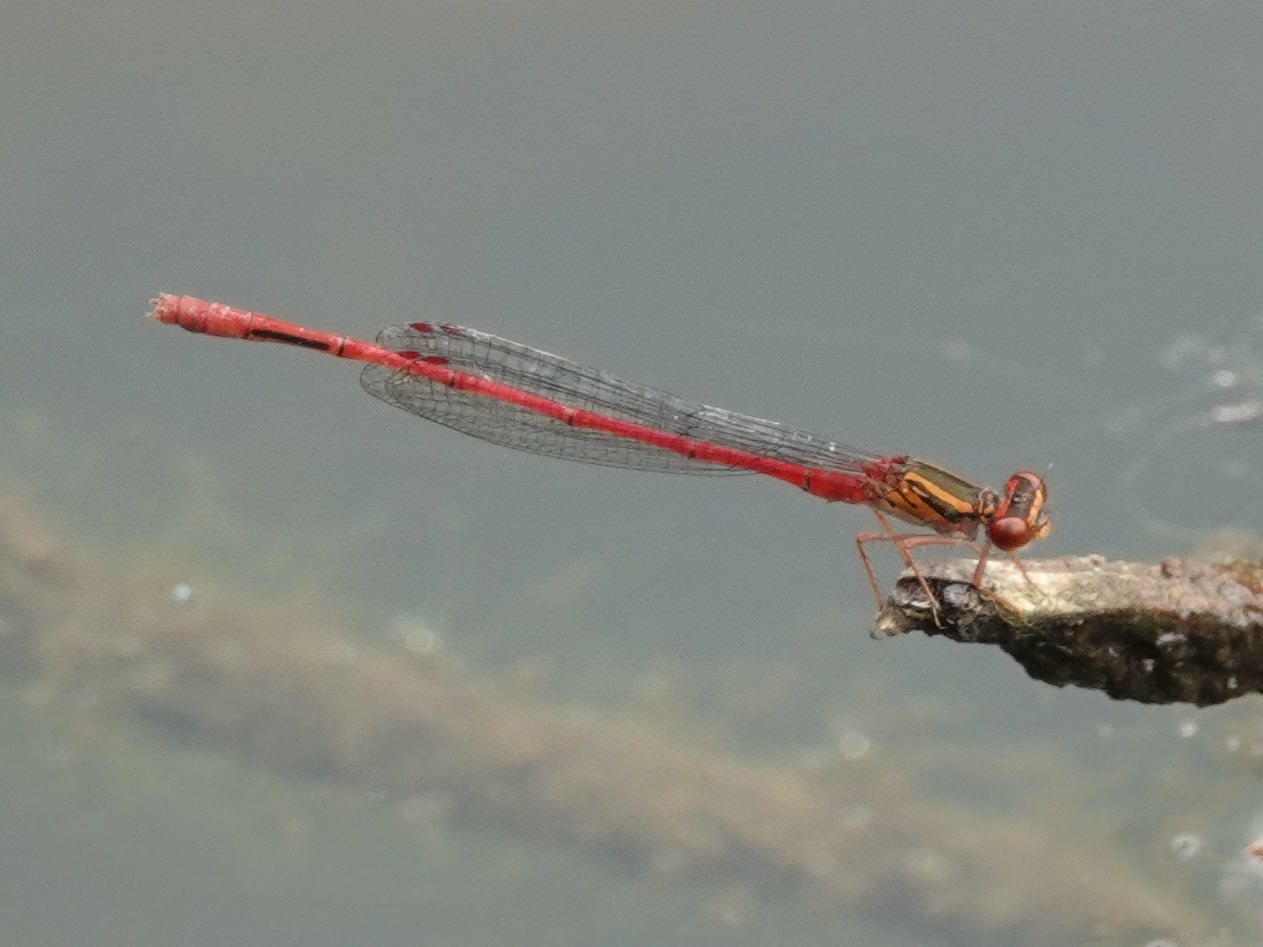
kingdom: Animalia
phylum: Arthropoda
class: Insecta
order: Odonata
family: Coenagrionidae
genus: Xanthocnemis
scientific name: Xanthocnemis zealandica
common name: Common redcoat damselfly
